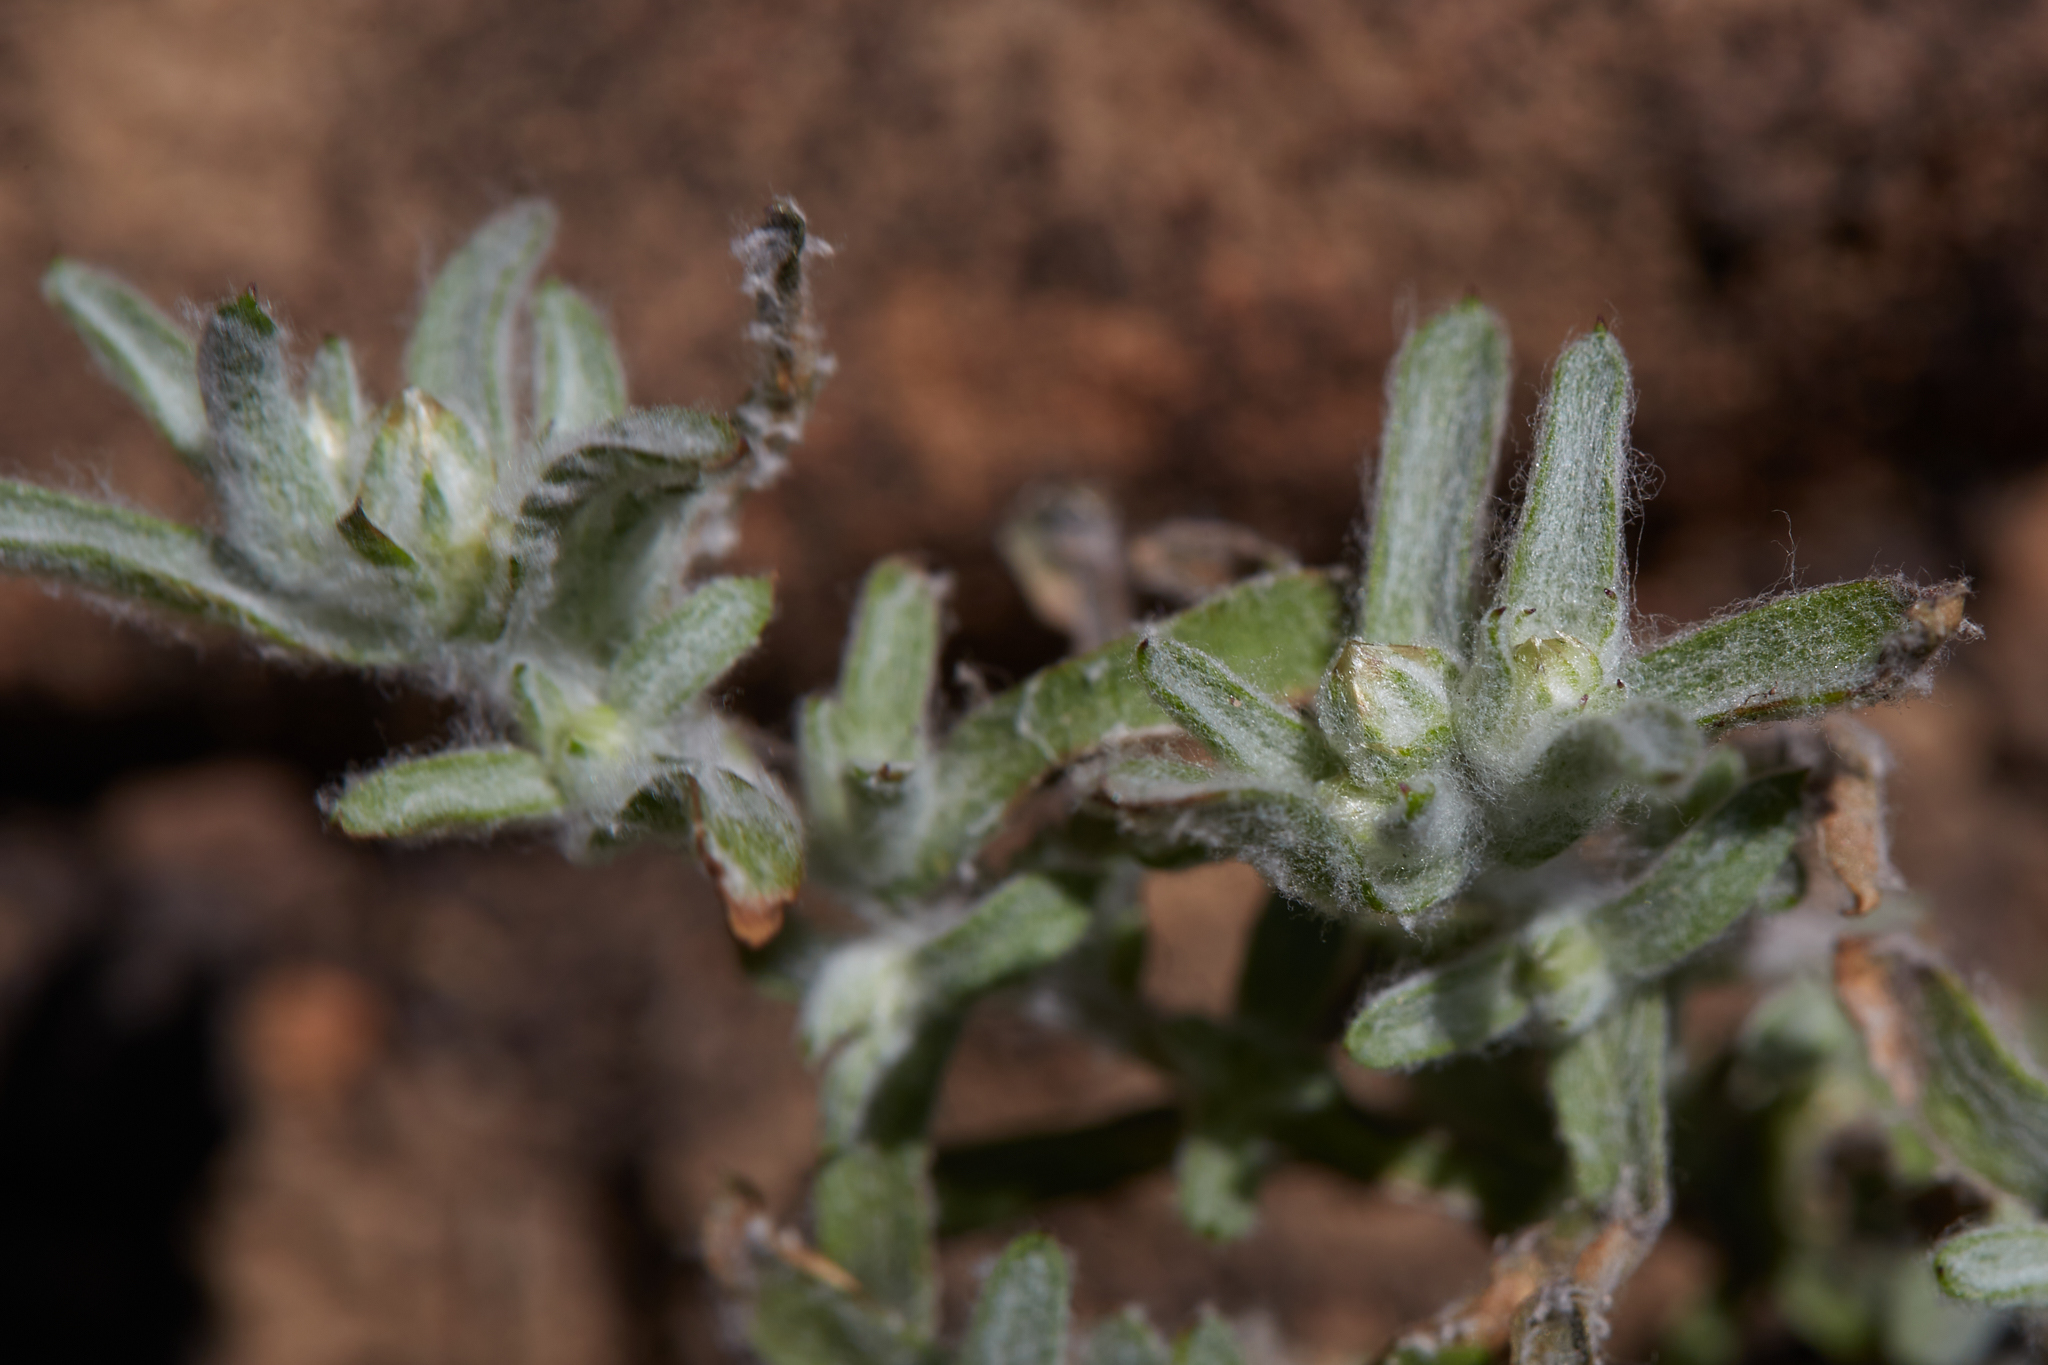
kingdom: Plantae
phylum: Tracheophyta
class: Magnoliopsida
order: Asterales
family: Asteraceae
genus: Logfia
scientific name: Logfia californica
